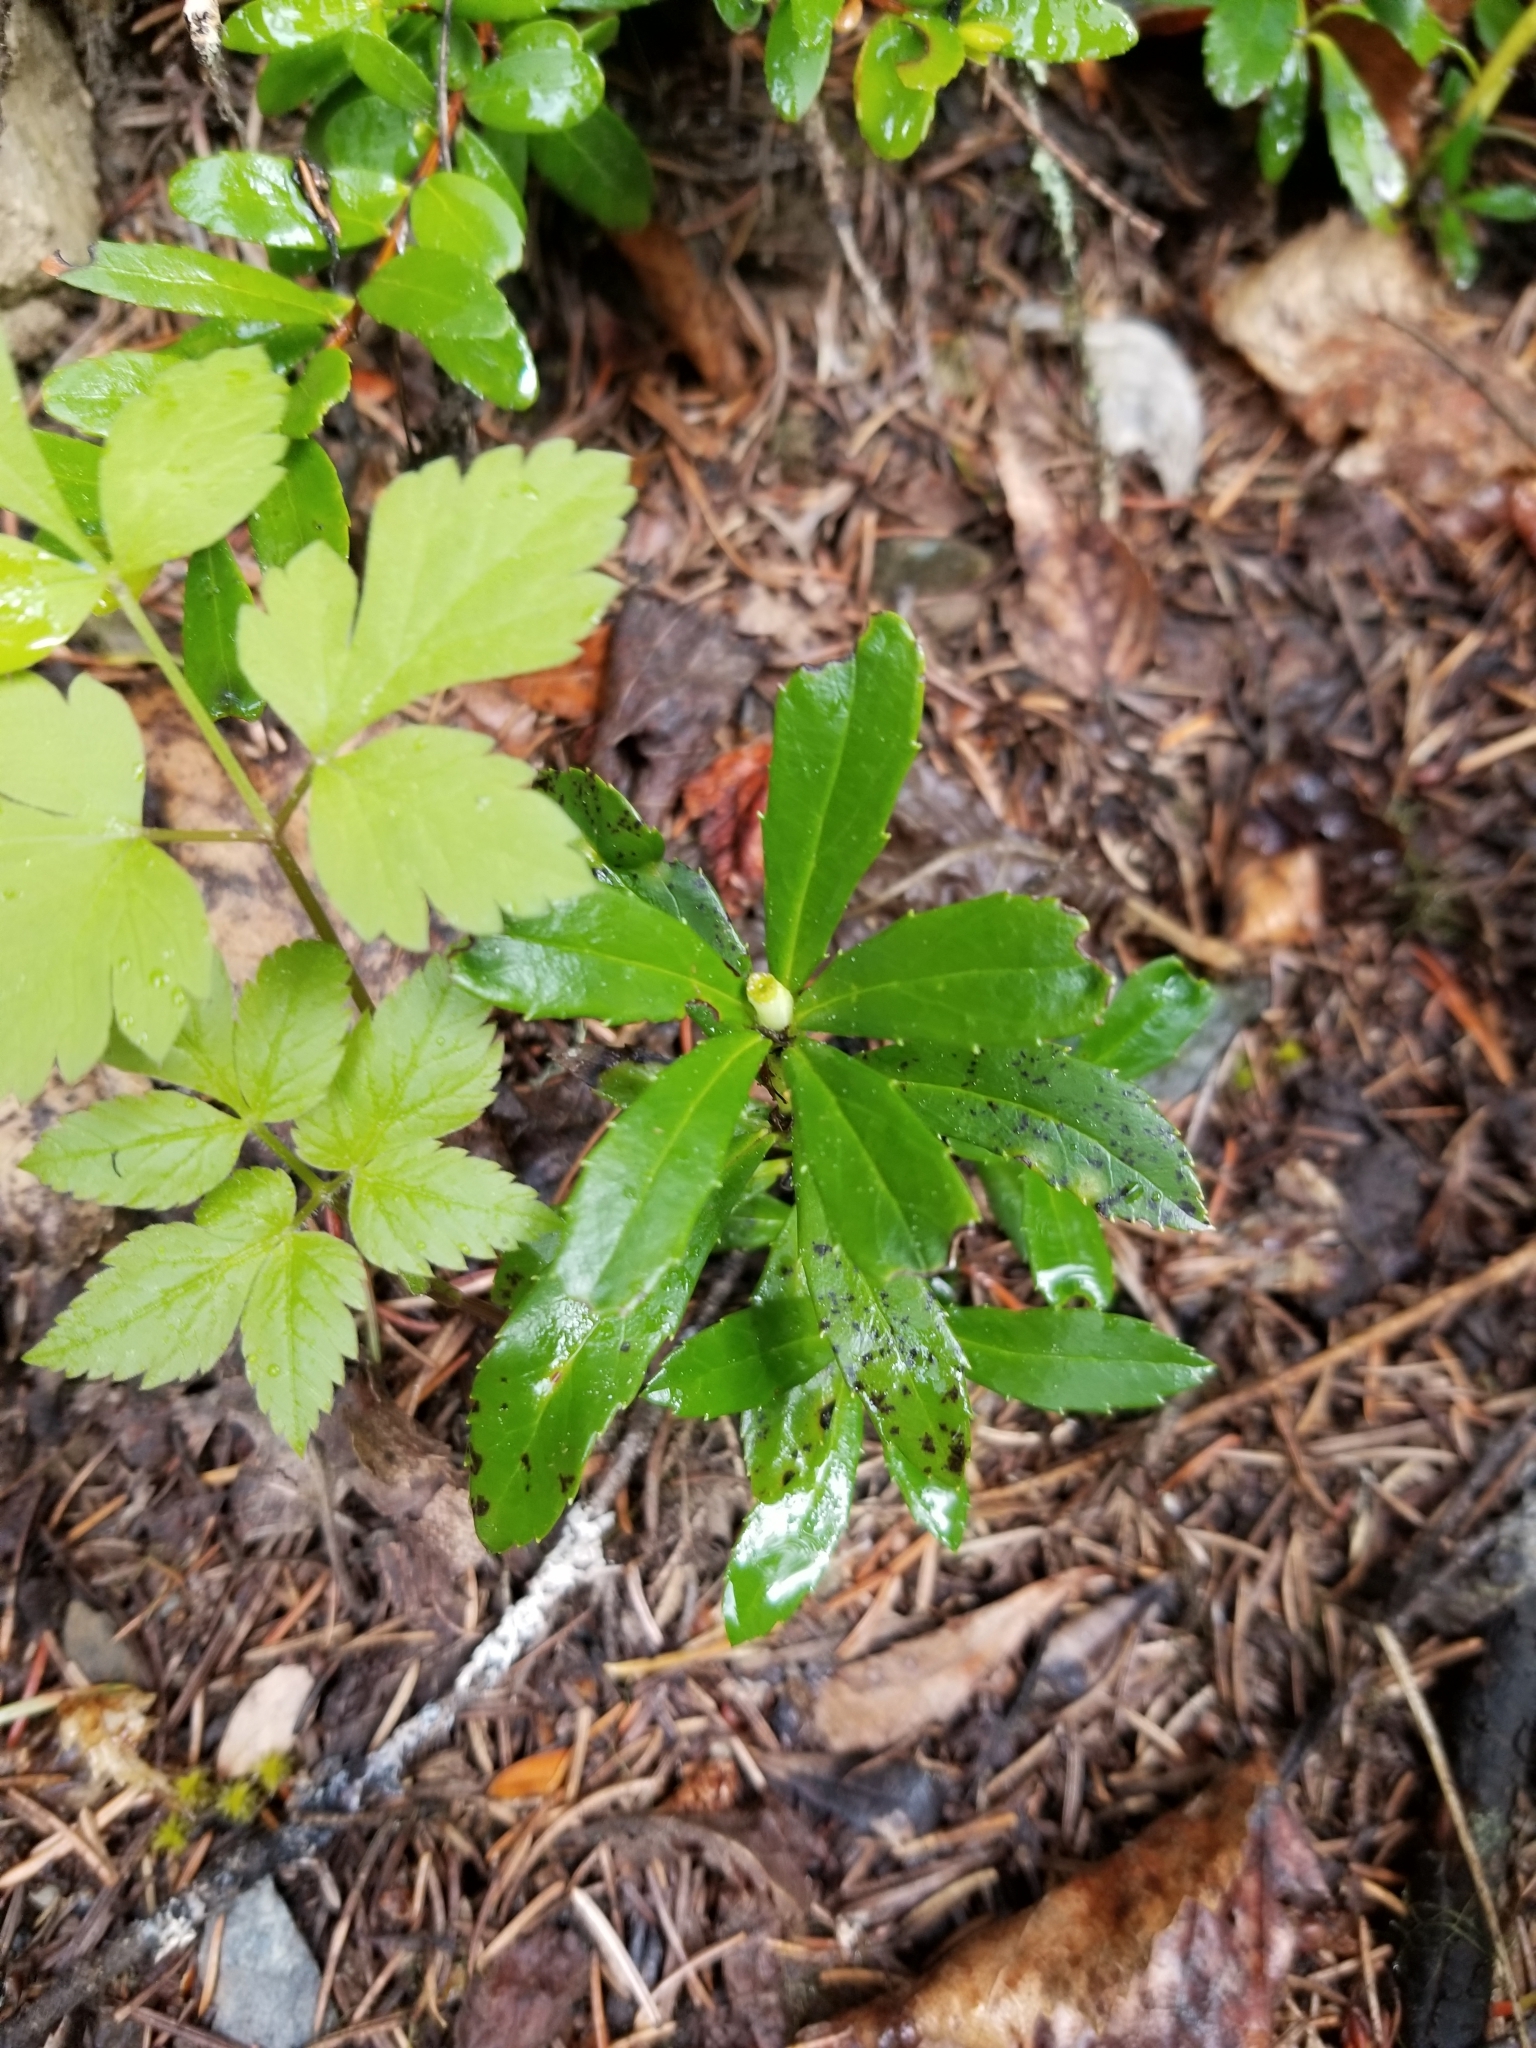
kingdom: Plantae
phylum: Tracheophyta
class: Magnoliopsida
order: Ericales
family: Ericaceae
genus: Chimaphila
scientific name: Chimaphila umbellata
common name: Pipsissewa
